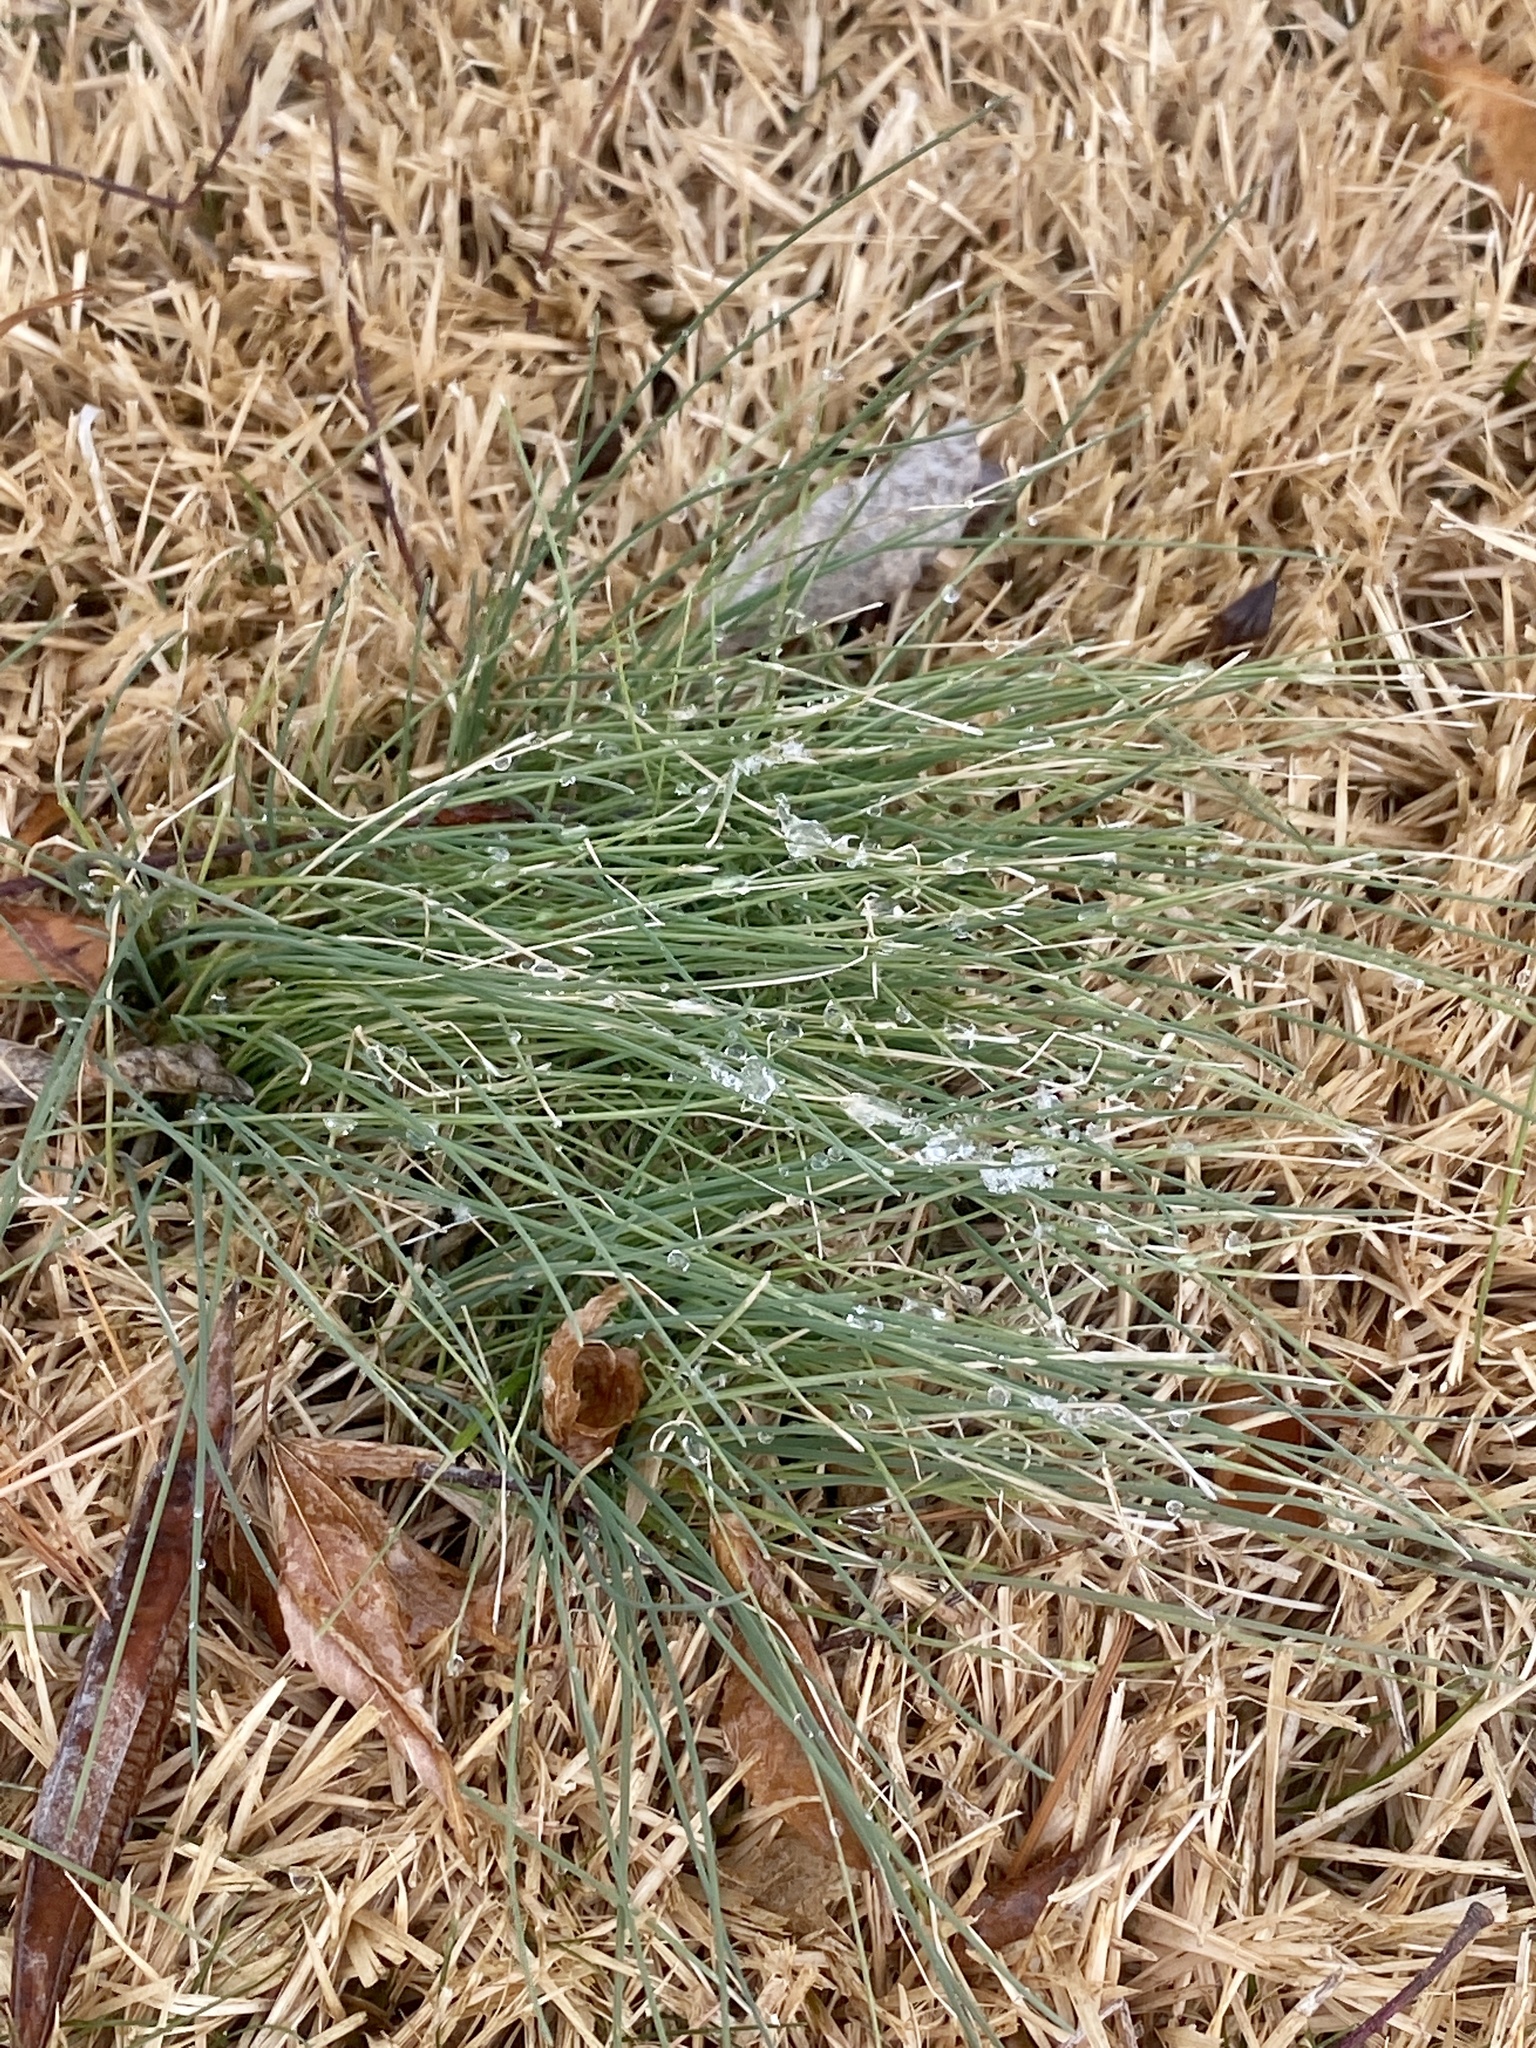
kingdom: Plantae
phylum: Tracheophyta
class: Liliopsida
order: Asparagales
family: Amaryllidaceae
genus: Allium
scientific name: Allium vineale
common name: Crow garlic
